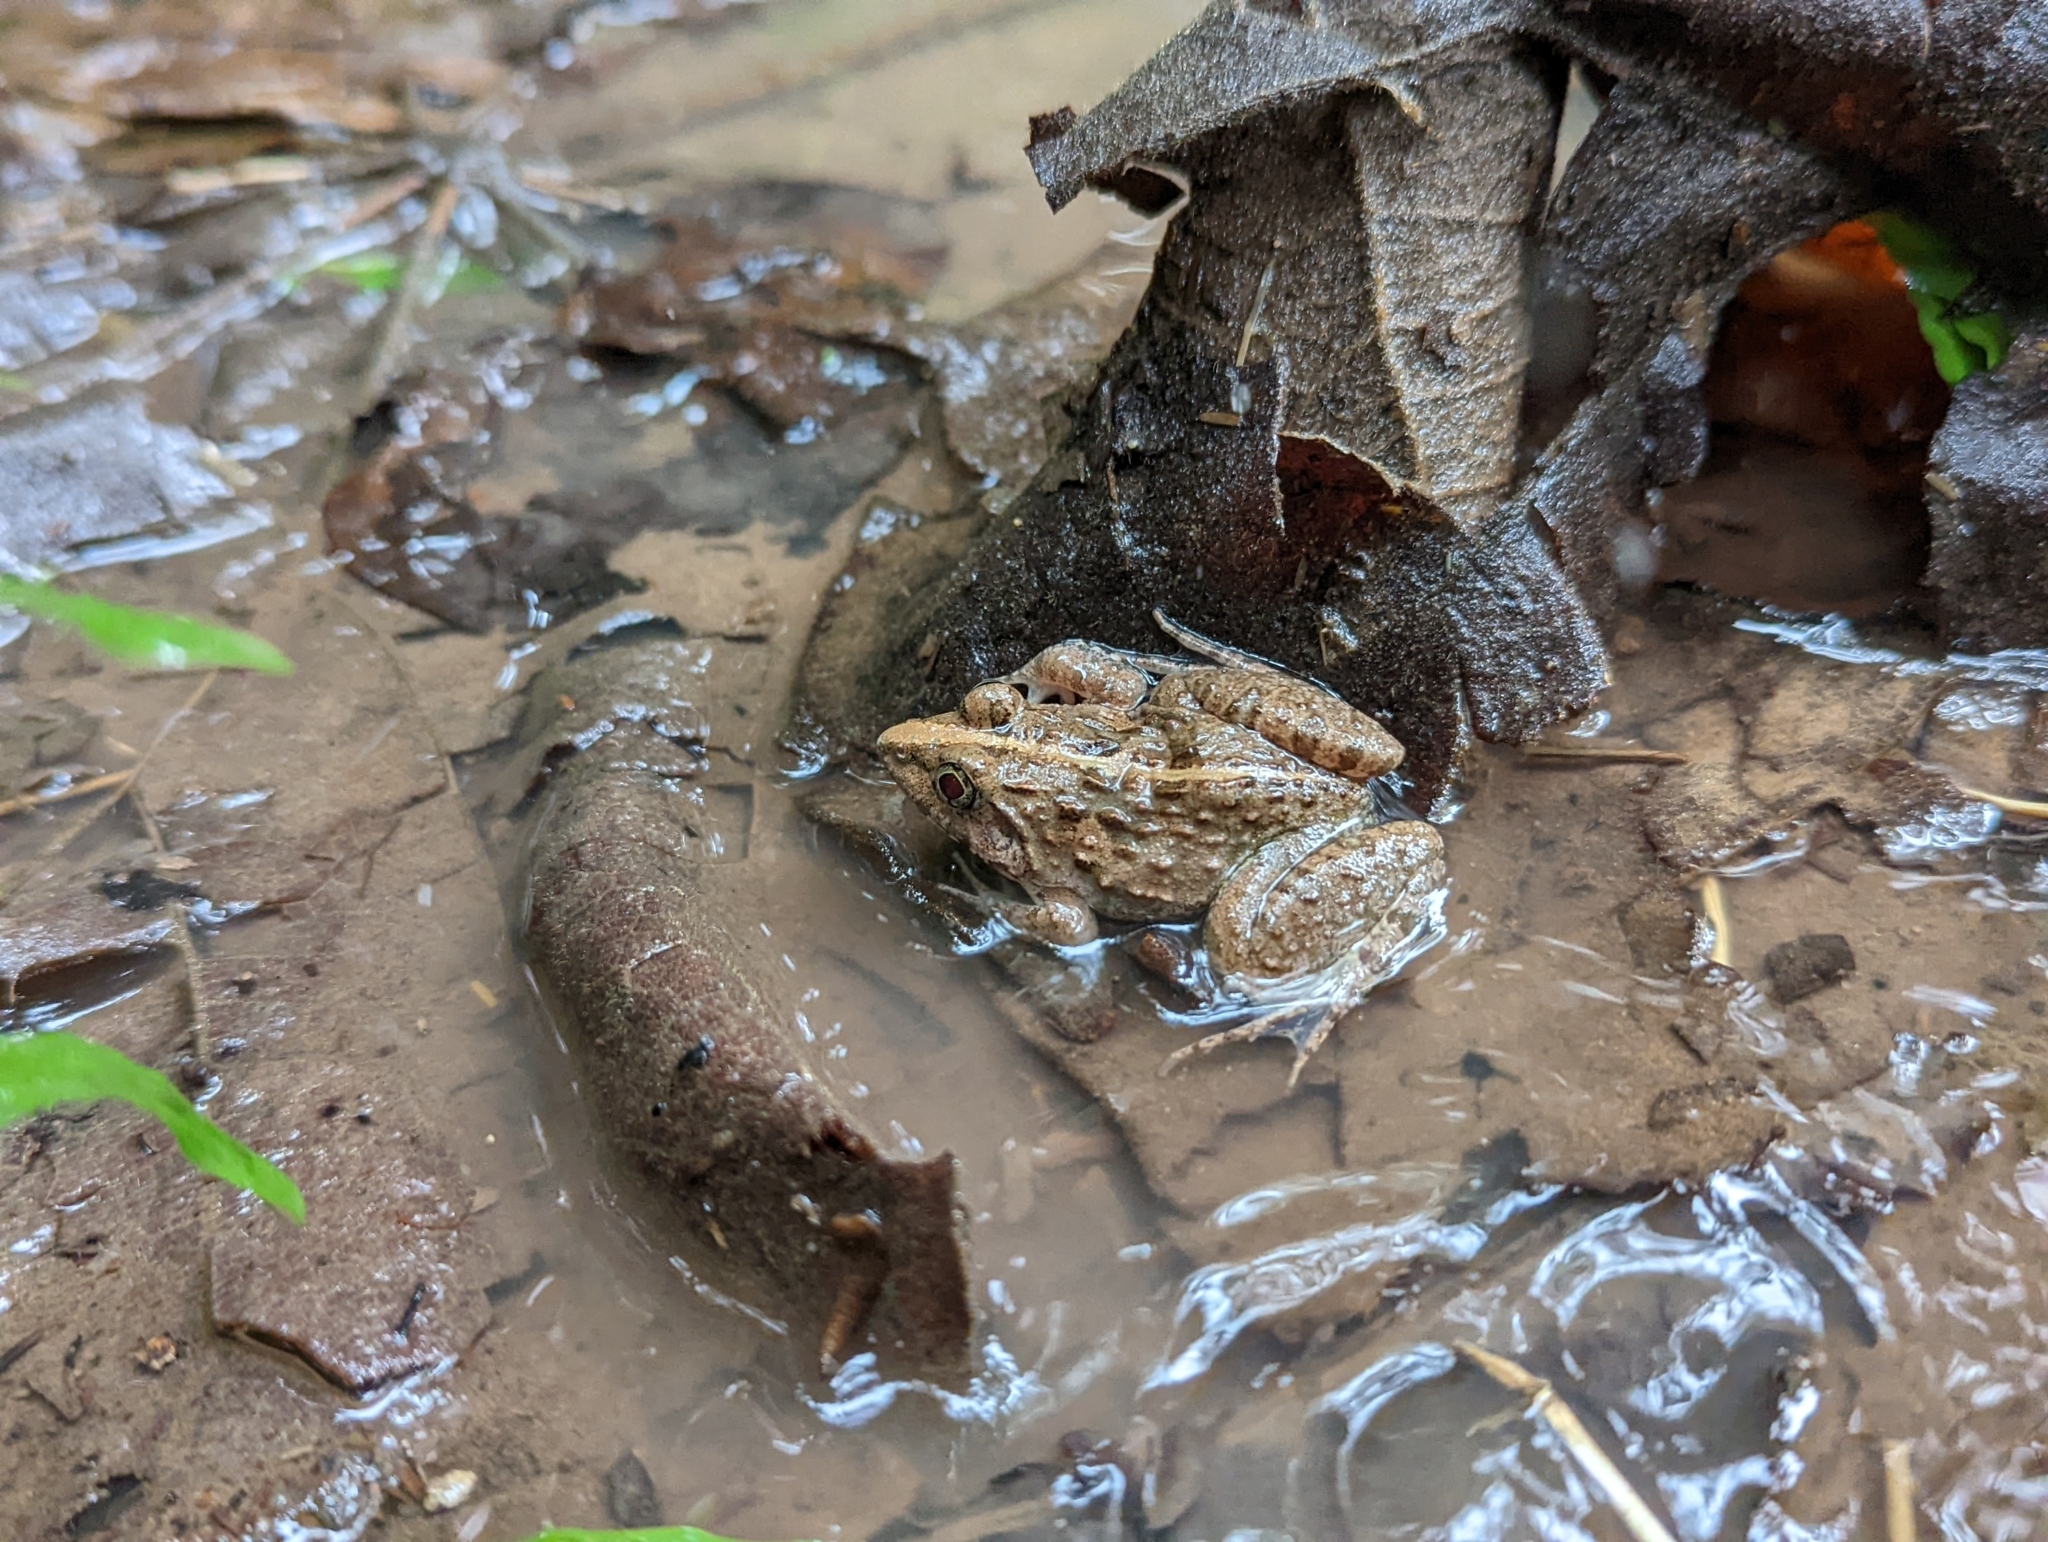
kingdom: Animalia
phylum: Chordata
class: Amphibia
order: Anura
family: Dicroglossidae
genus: Fejervarya
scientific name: Fejervarya limnocharis
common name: Asian grass frog/common pond frog/field frog/grass frog/indian rice frog
